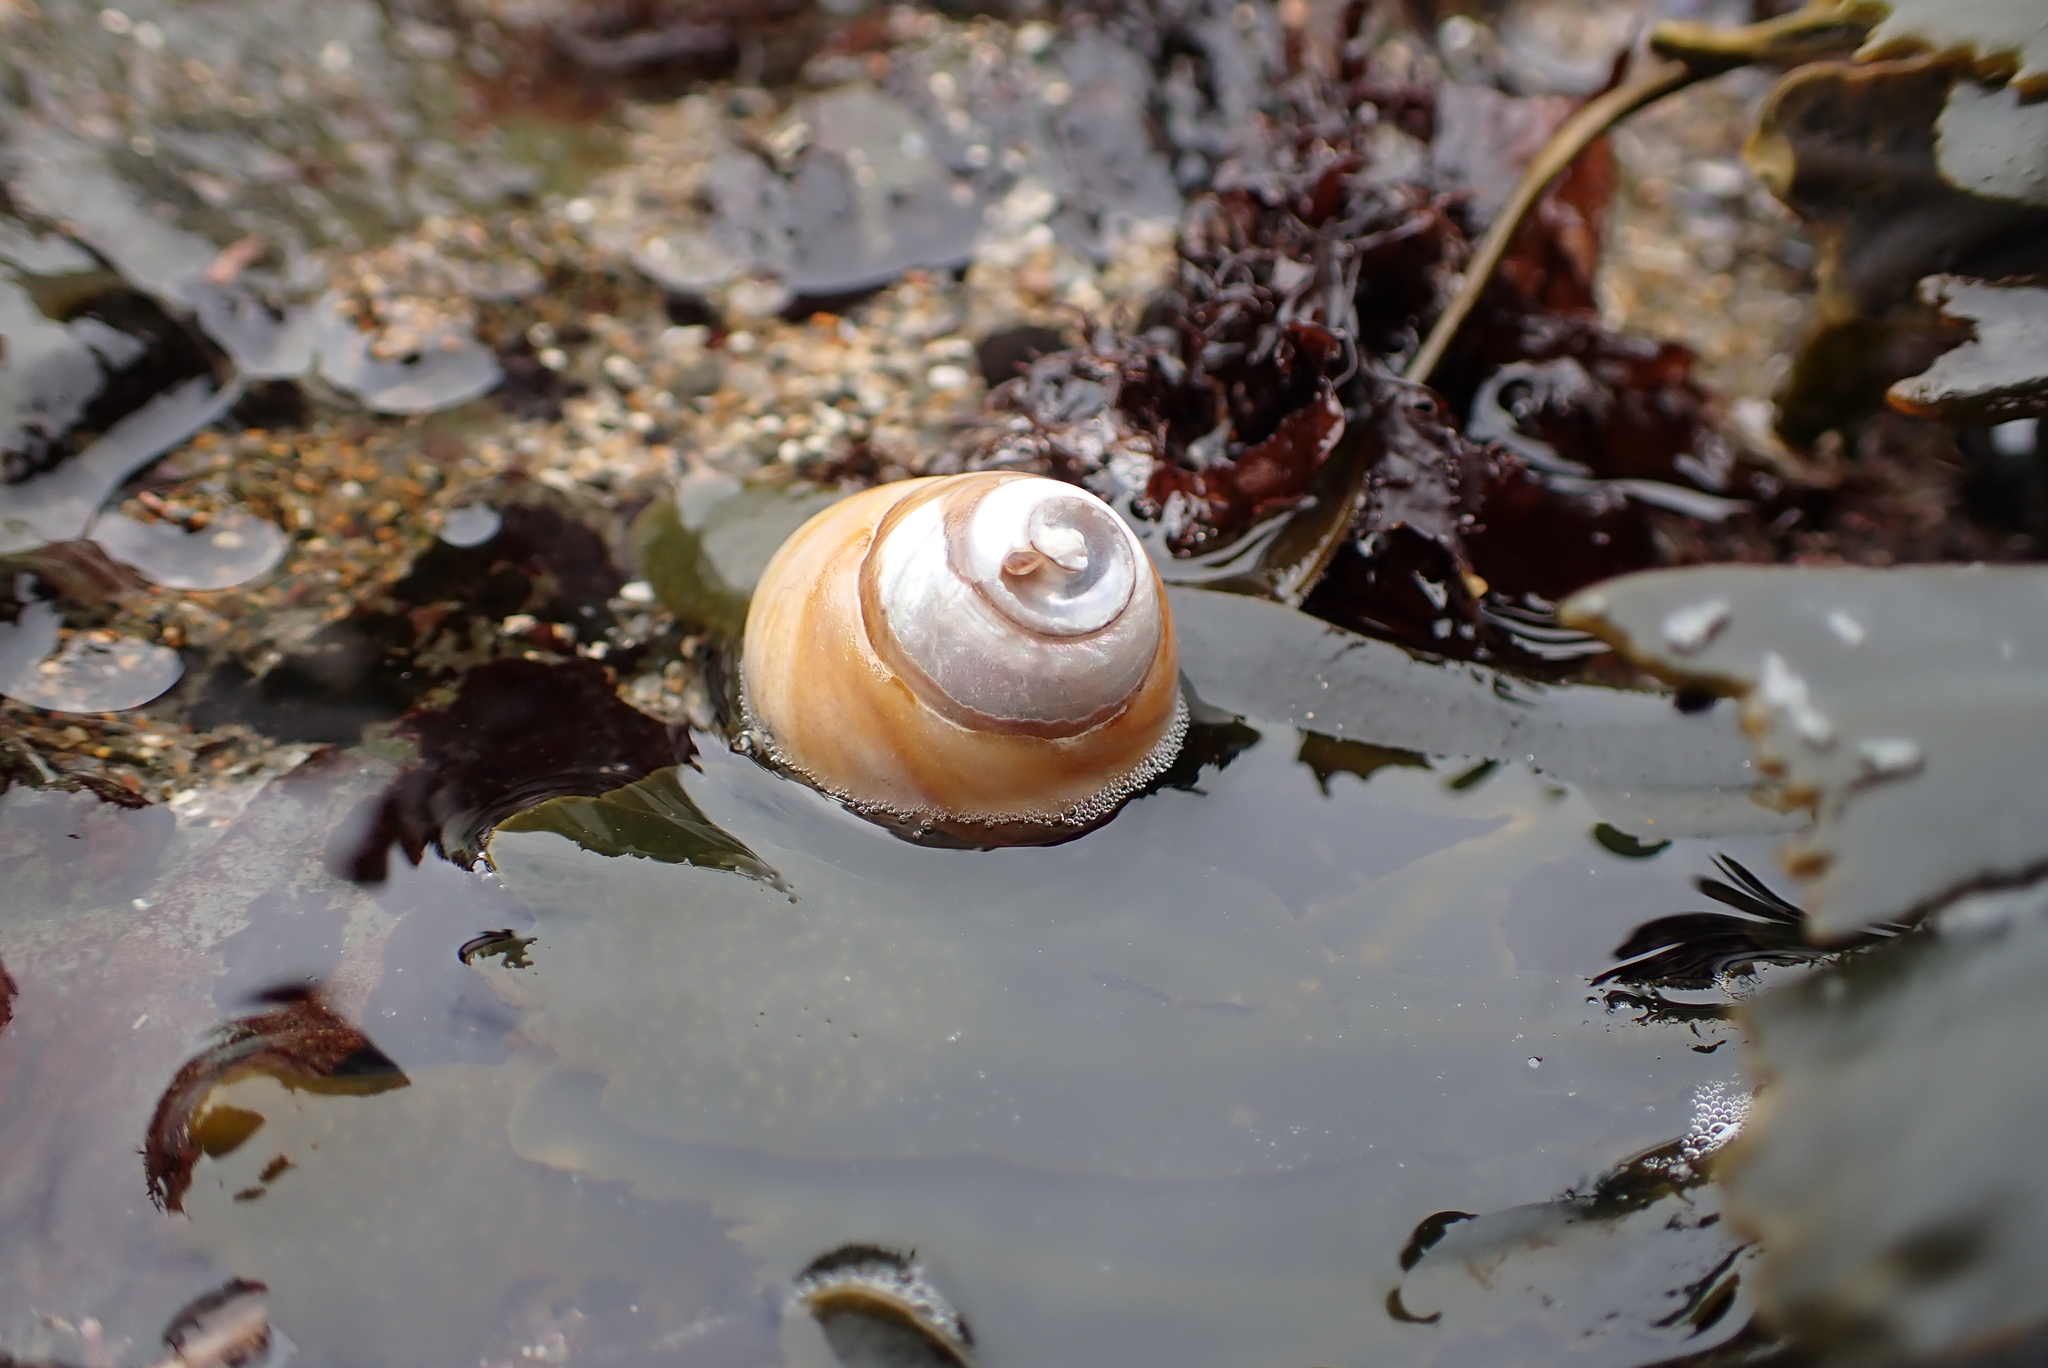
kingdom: Animalia
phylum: Mollusca
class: Gastropoda
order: Trochida
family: Tegulidae
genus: Tegula
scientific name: Tegula brunnea
